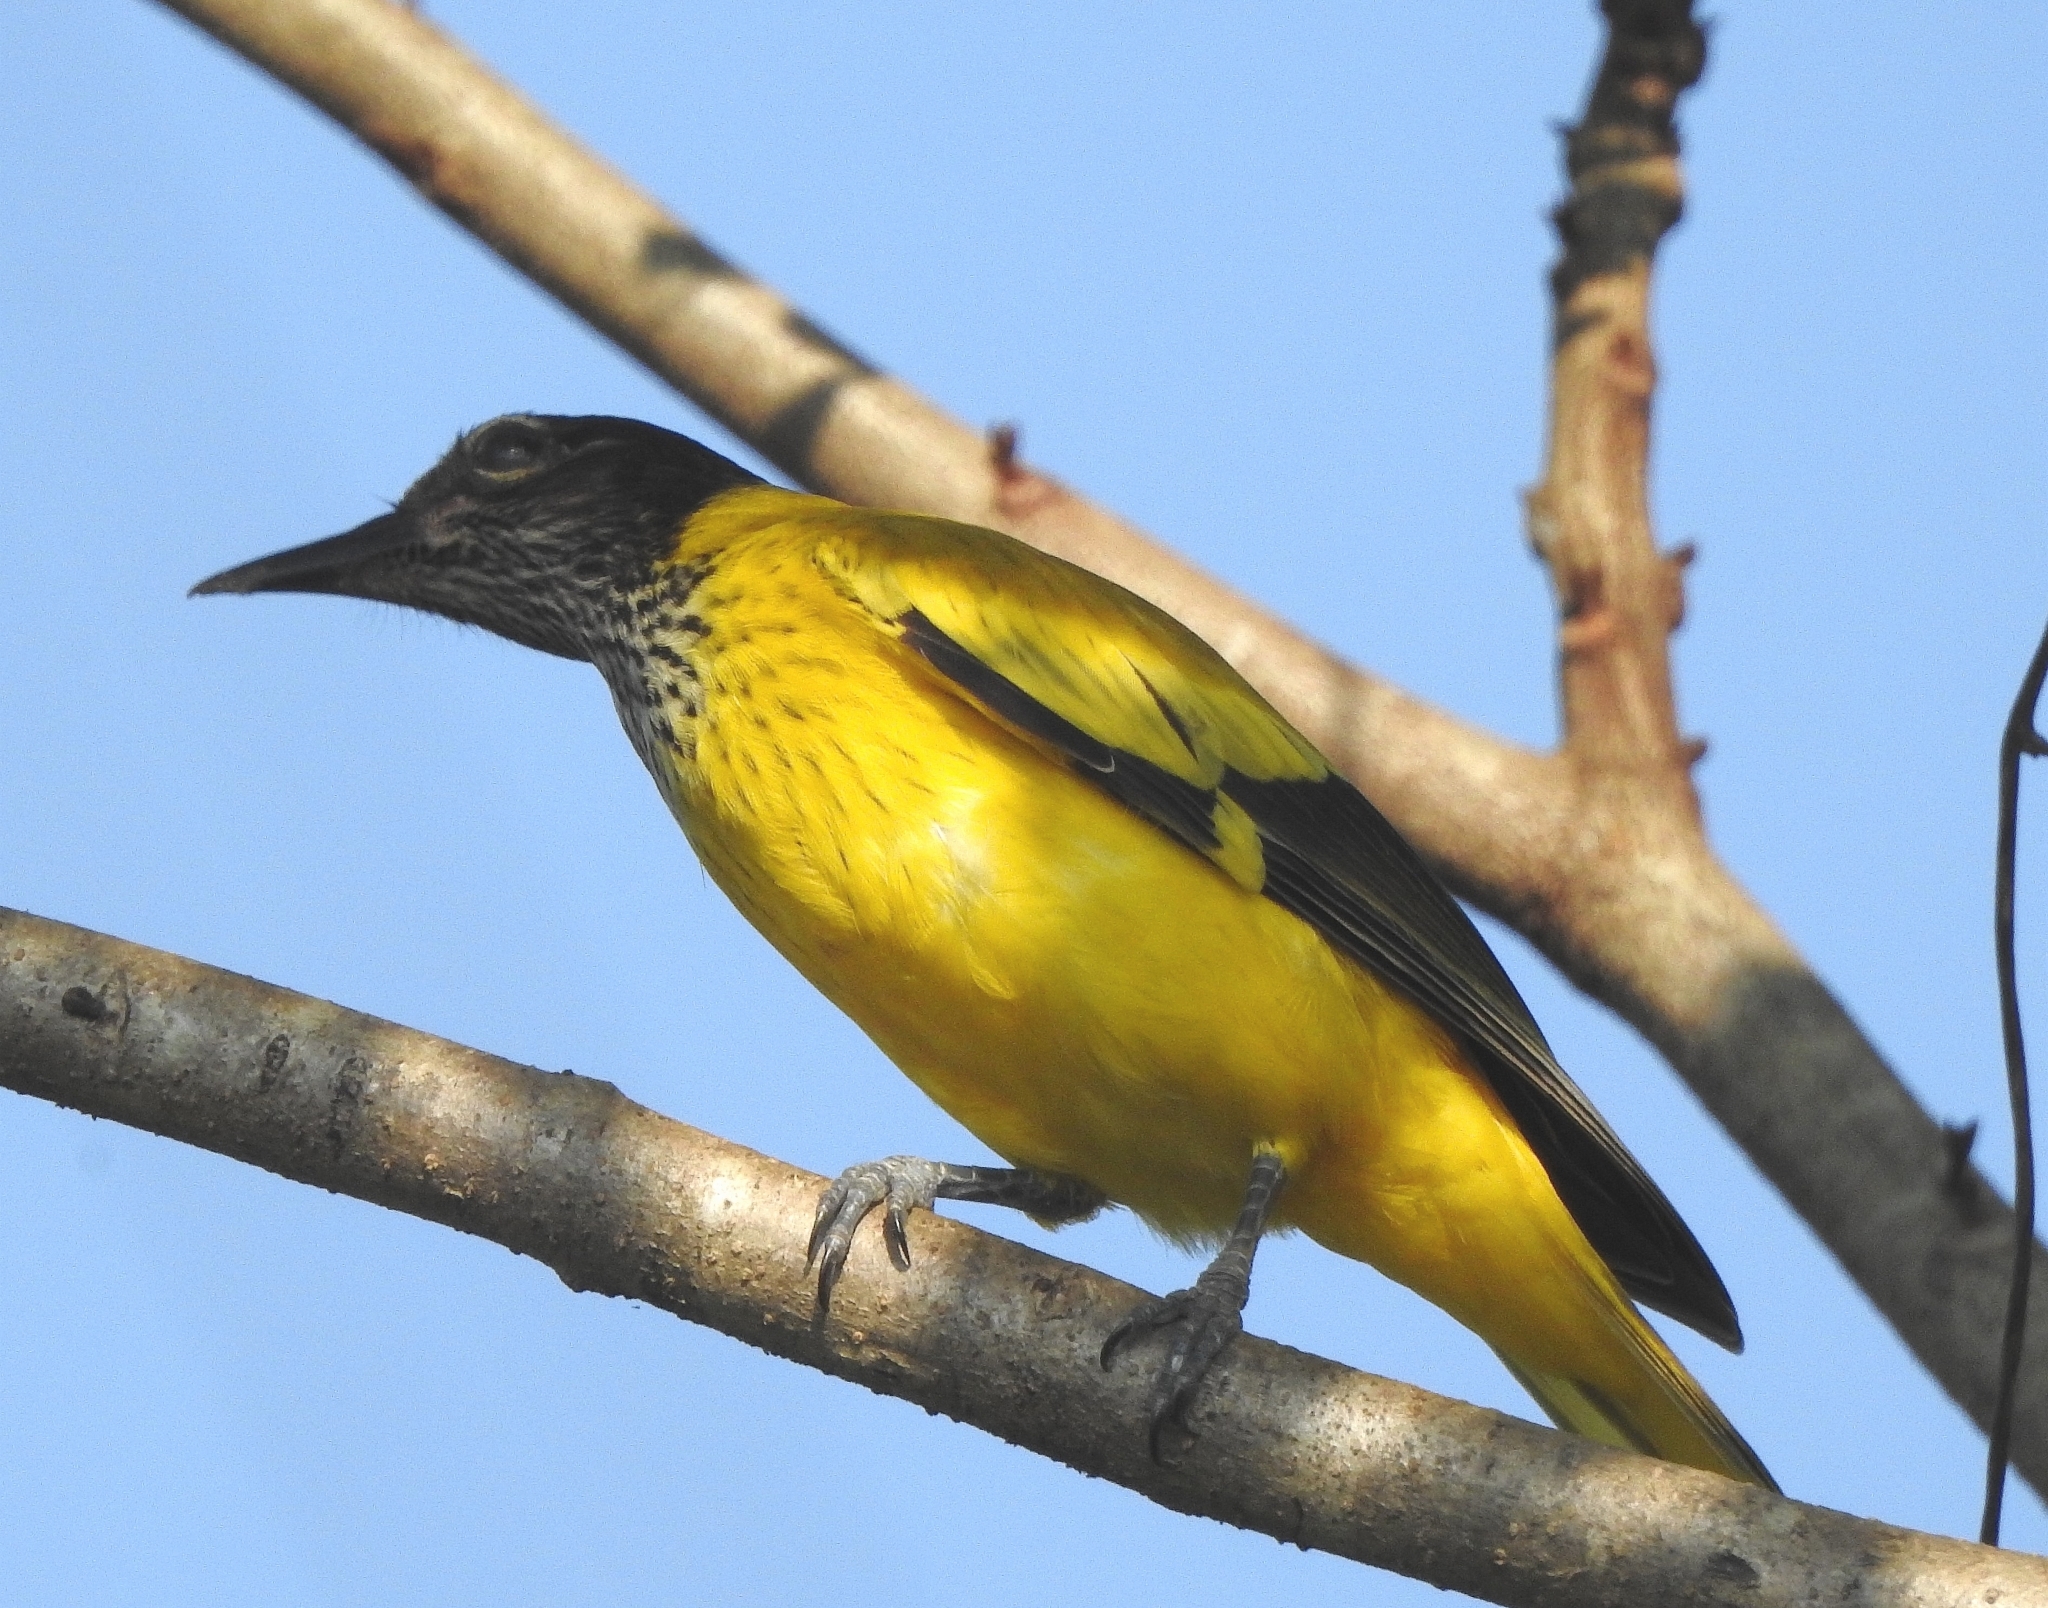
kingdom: Animalia
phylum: Chordata
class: Aves
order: Passeriformes
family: Oriolidae
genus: Oriolus
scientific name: Oriolus xanthornus
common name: Black-hooded oriole
